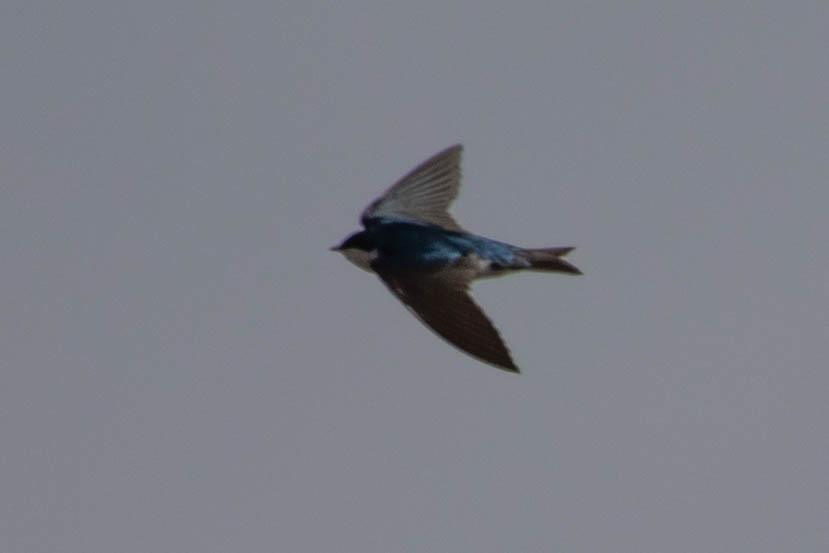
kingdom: Animalia
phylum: Chordata
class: Aves
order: Apodiformes
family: Apodidae
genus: Aeronautes
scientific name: Aeronautes saxatalis
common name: White-throated swift
